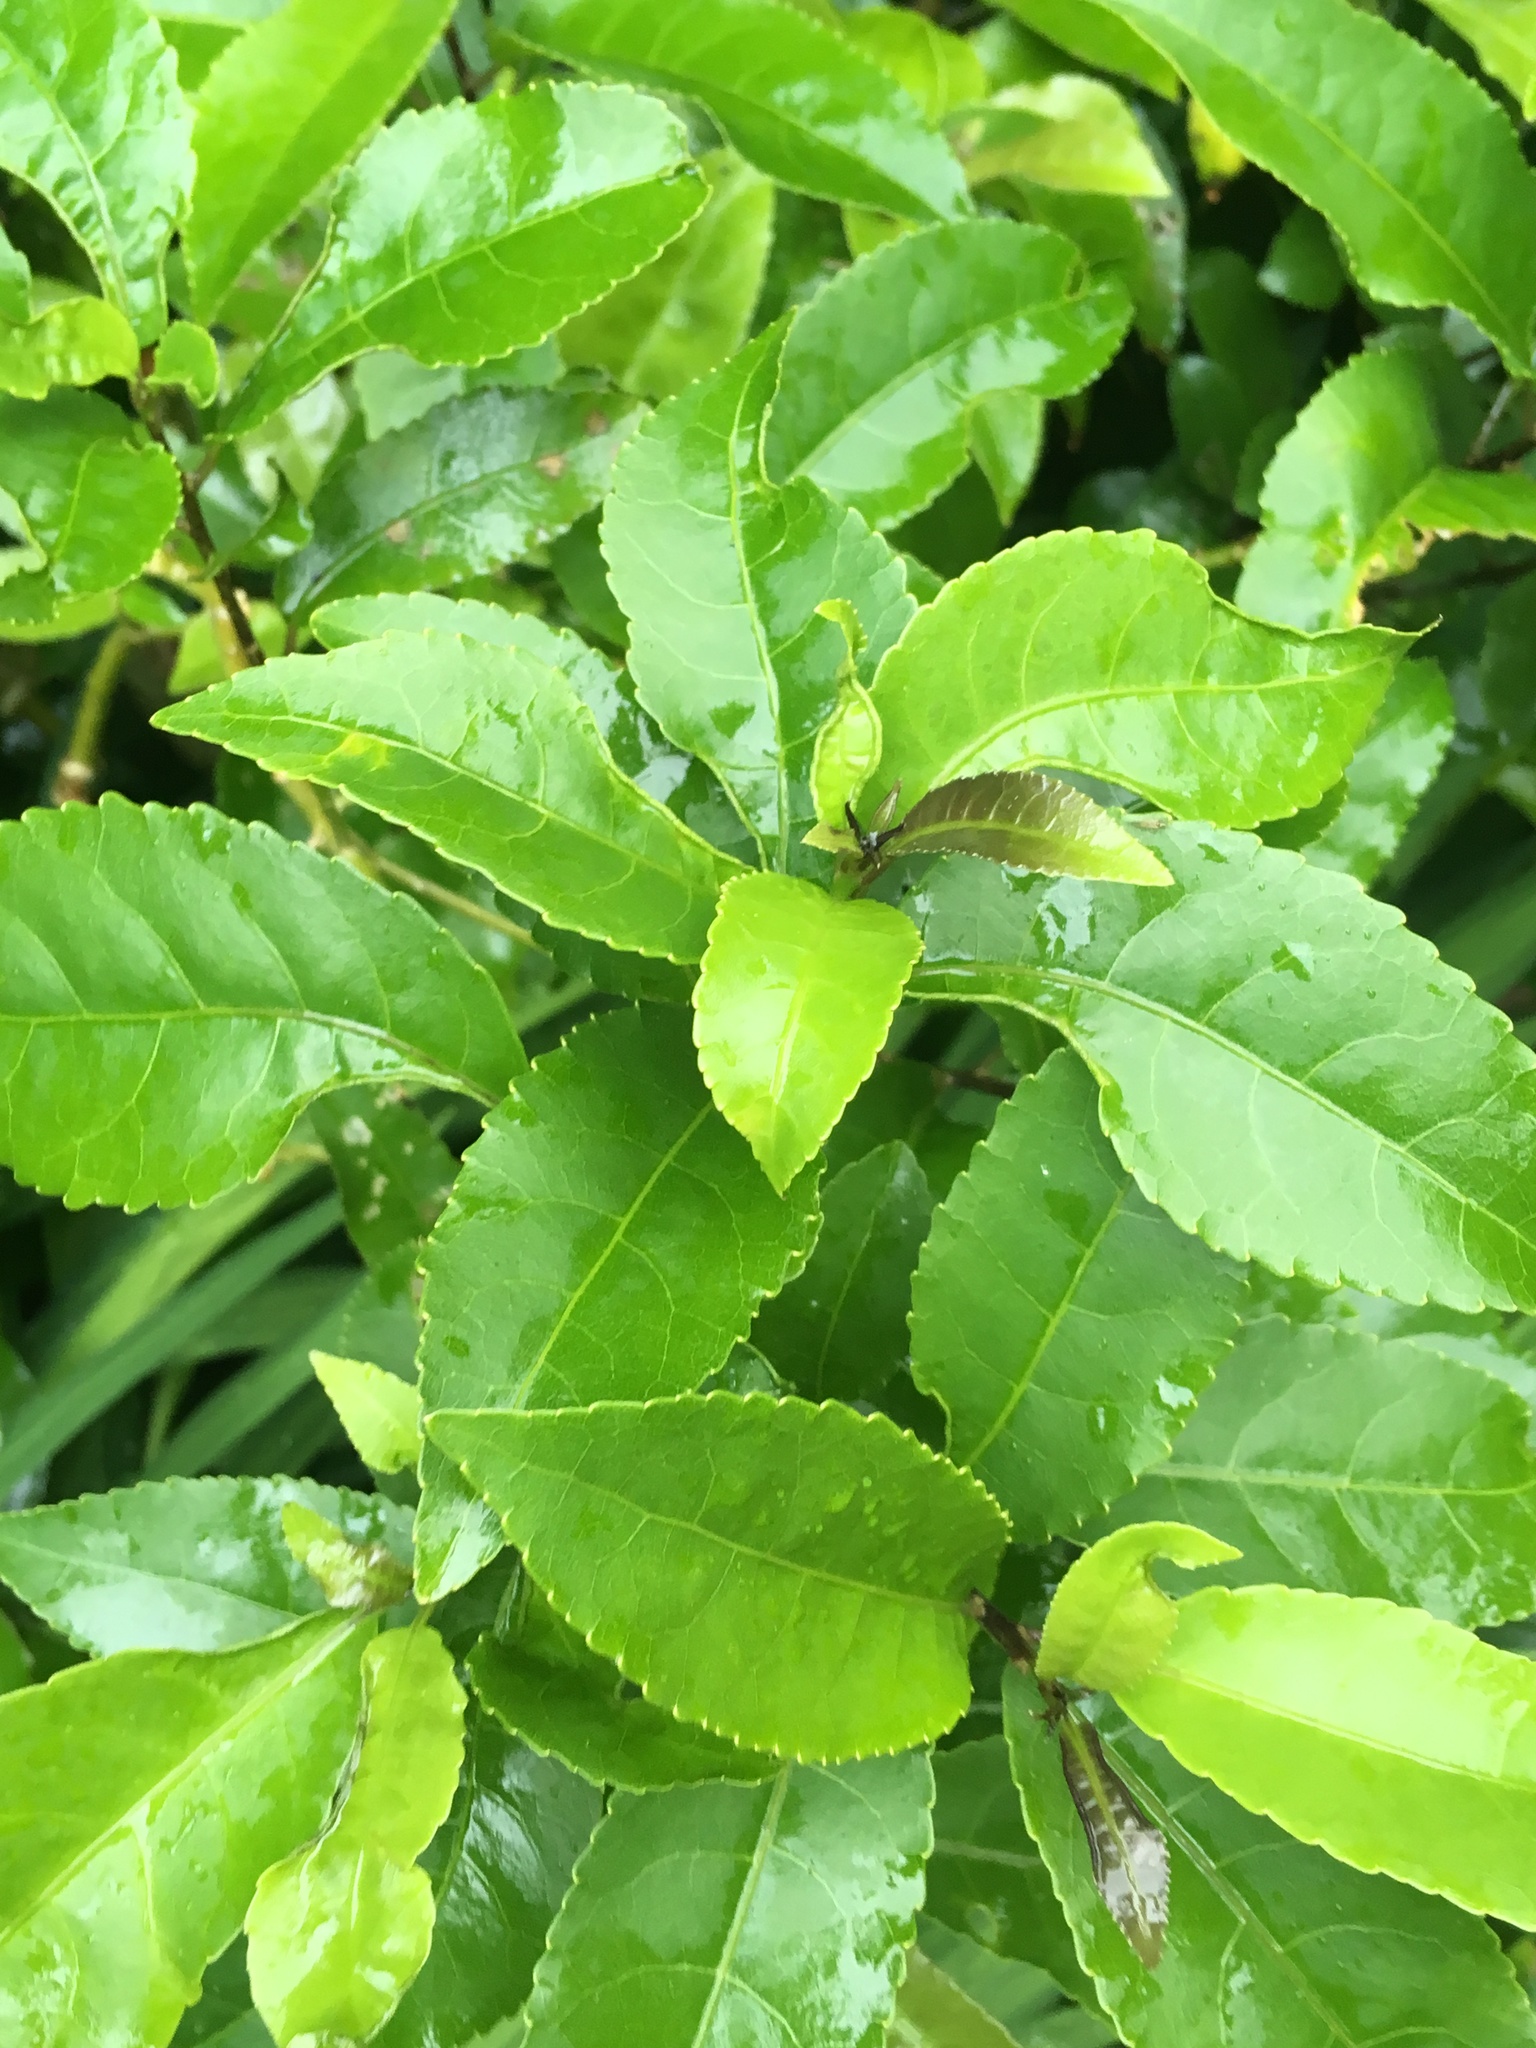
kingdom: Plantae
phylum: Tracheophyta
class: Magnoliopsida
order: Malpighiales
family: Violaceae
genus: Melicytus
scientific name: Melicytus ramiflorus
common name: Mahoe
